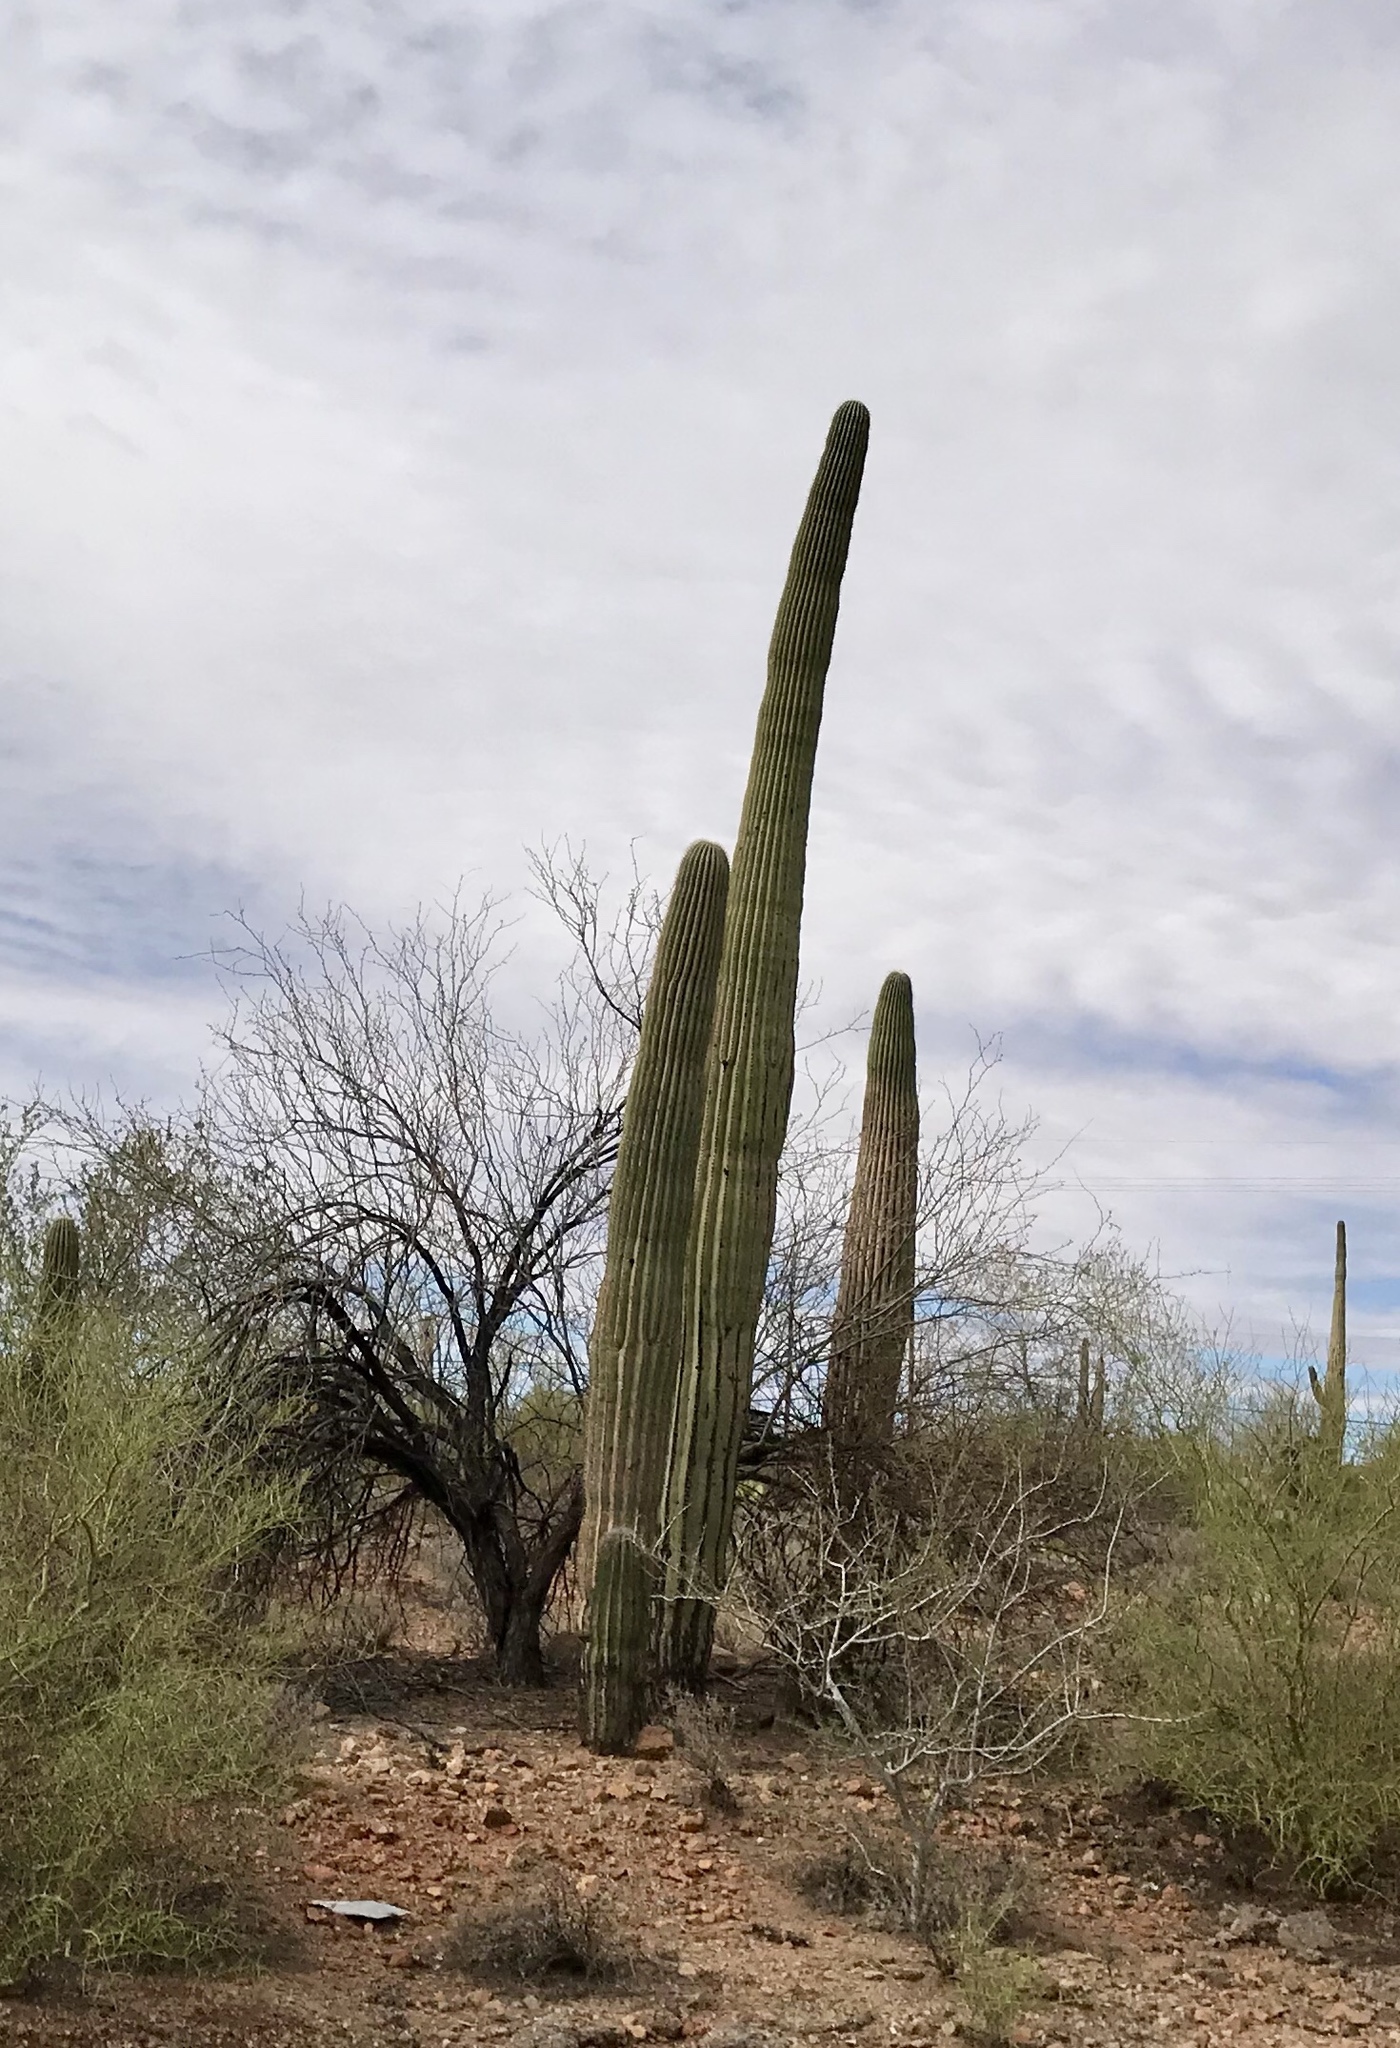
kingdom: Plantae
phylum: Tracheophyta
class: Magnoliopsida
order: Caryophyllales
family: Cactaceae
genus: Carnegiea
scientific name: Carnegiea gigantea
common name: Saguaro
